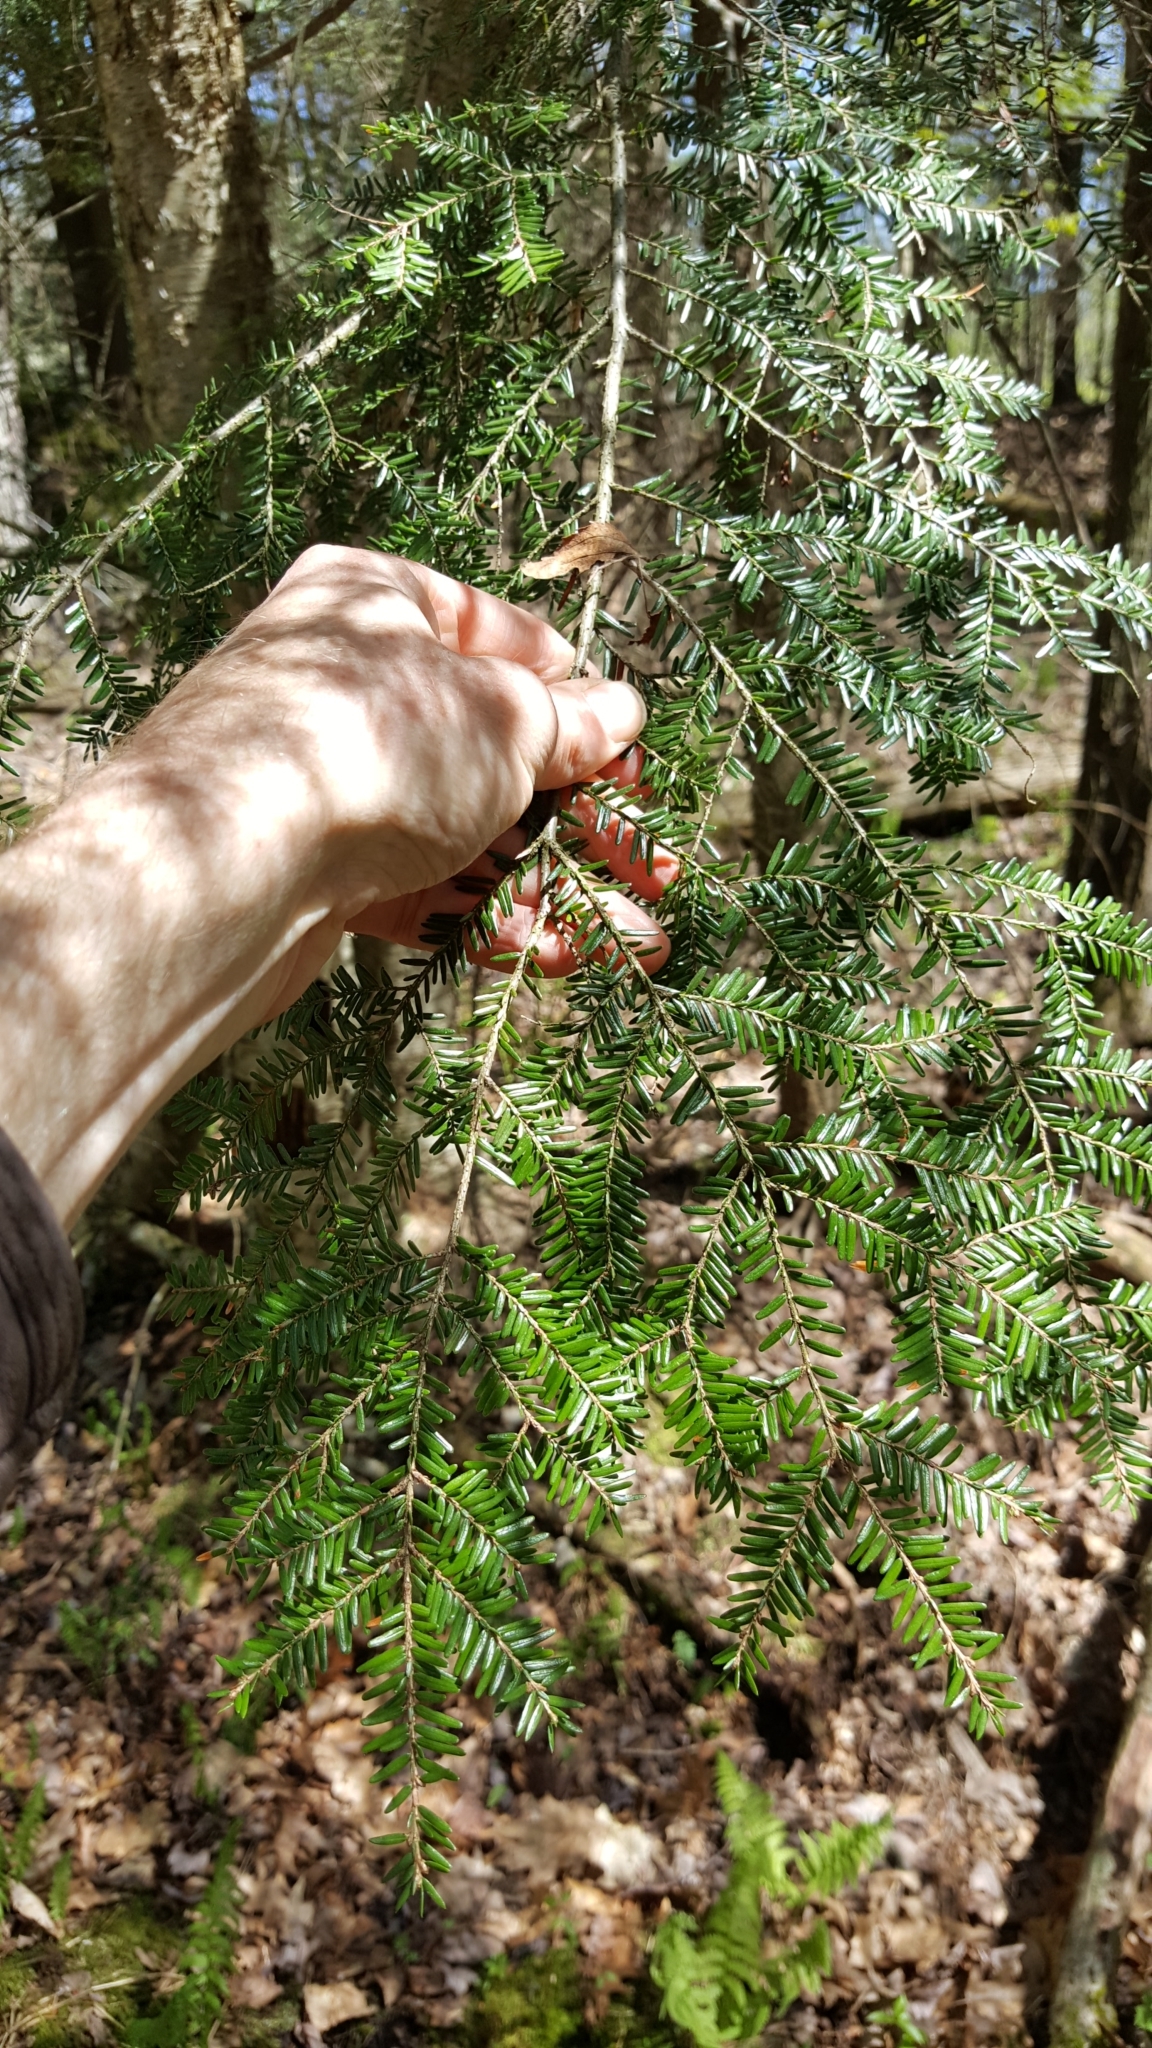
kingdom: Plantae
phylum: Tracheophyta
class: Pinopsida
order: Pinales
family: Pinaceae
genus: Tsuga
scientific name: Tsuga canadensis
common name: Eastern hemlock
